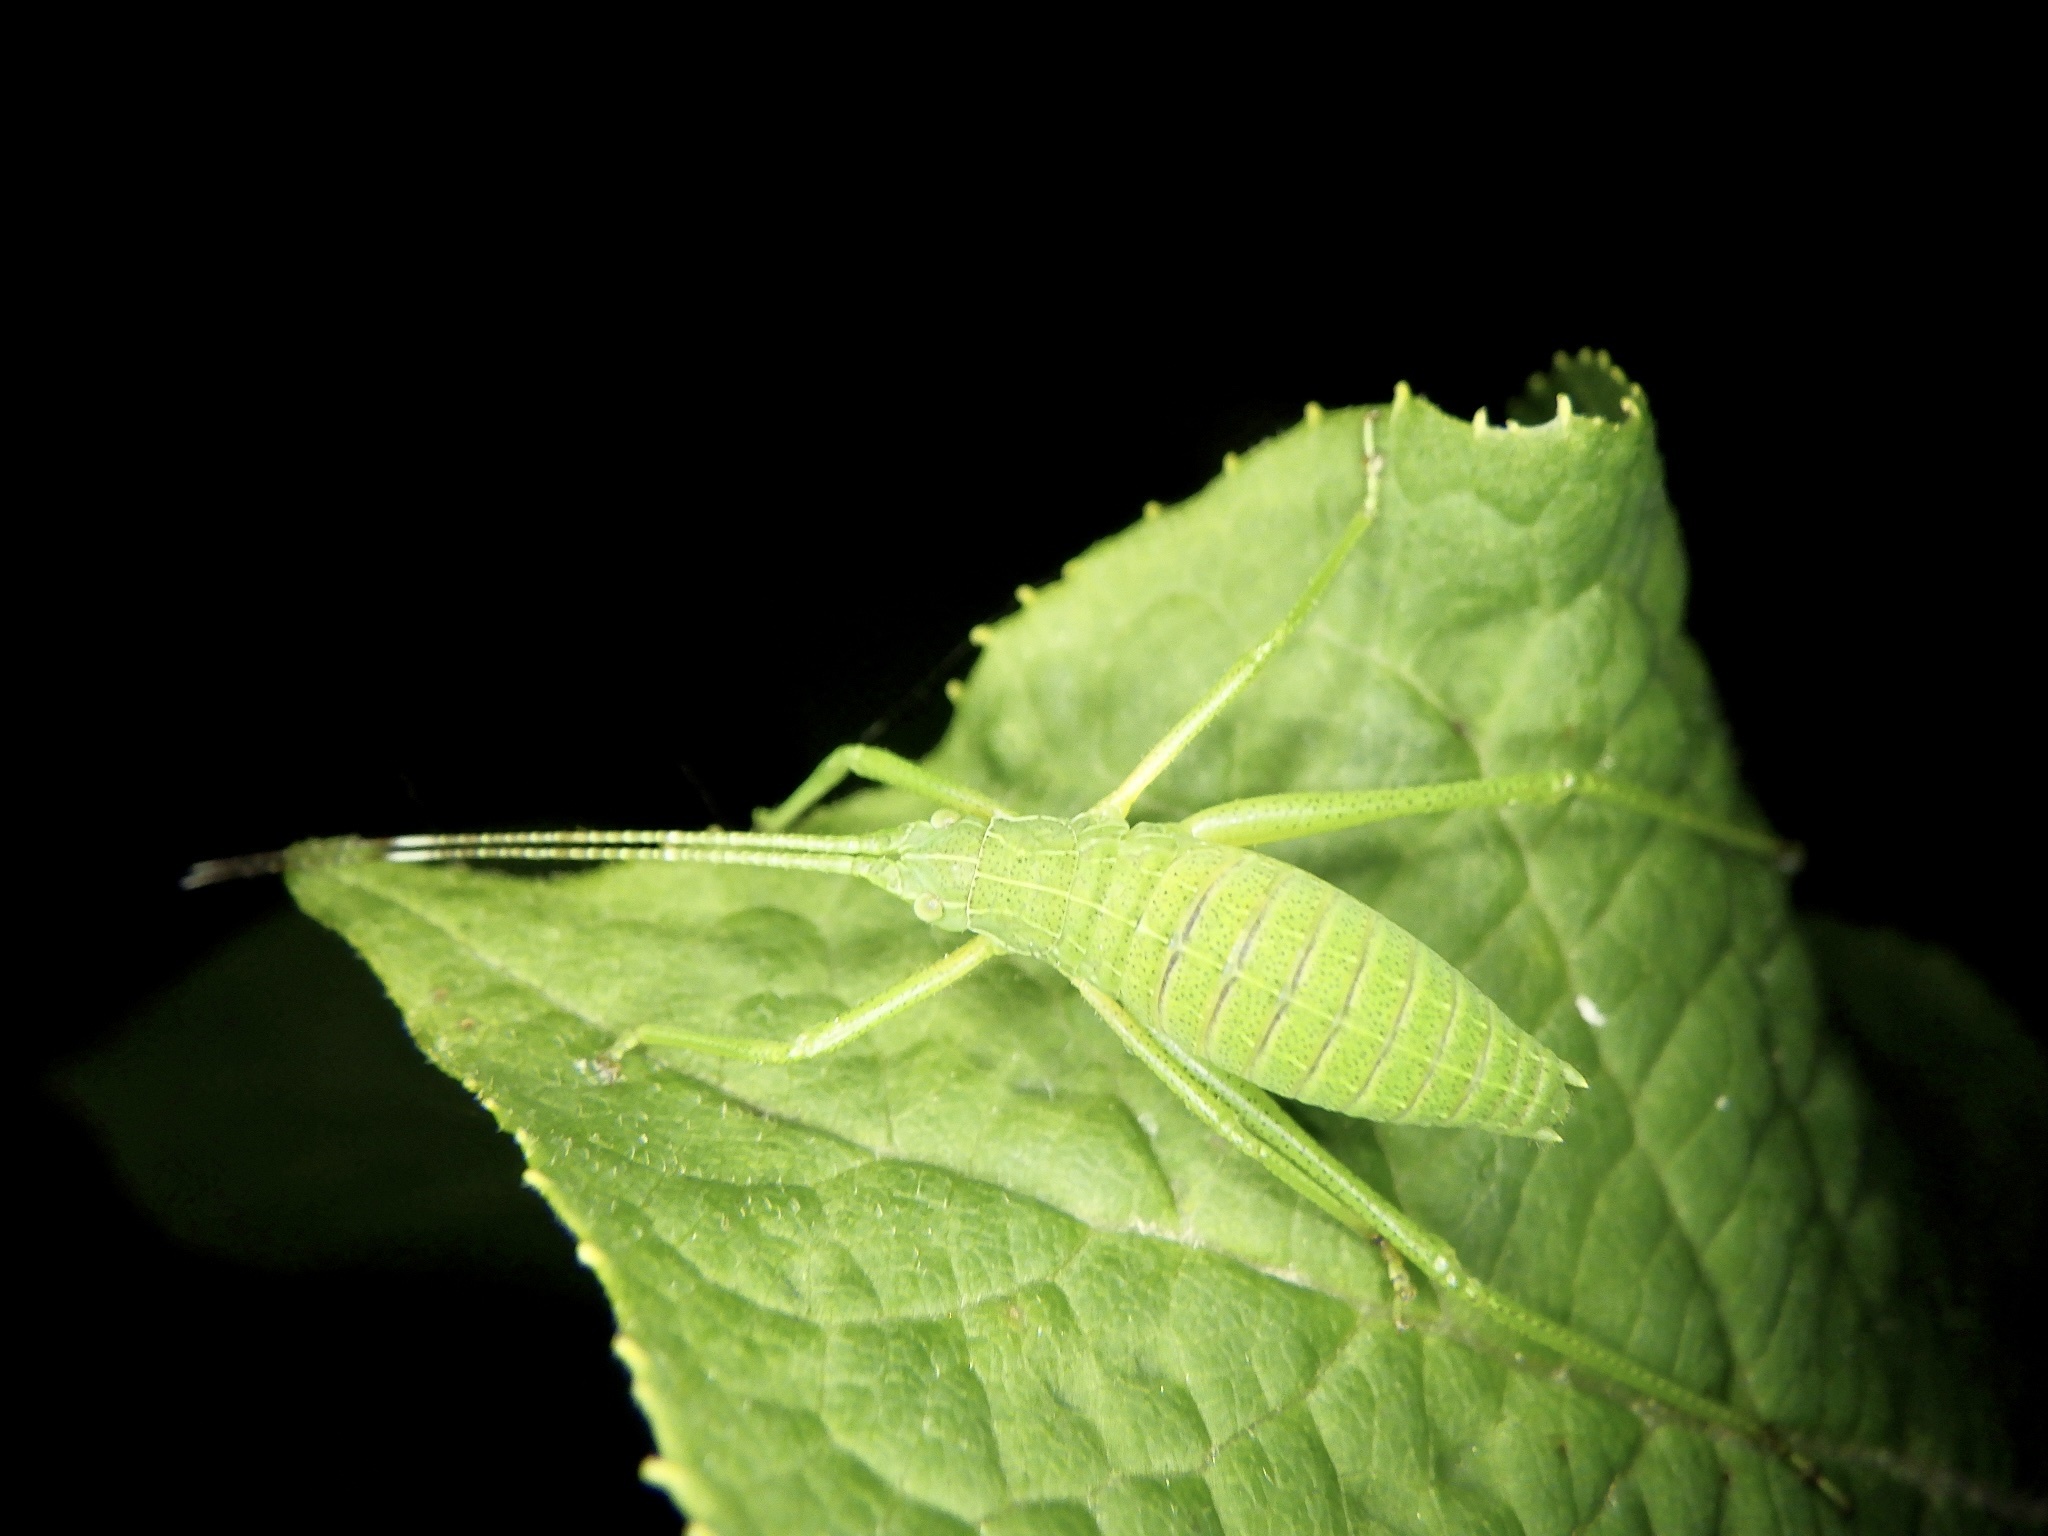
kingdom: Animalia
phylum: Arthropoda
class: Insecta
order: Orthoptera
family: Tettigoniidae
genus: Shirakisotima
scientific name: Shirakisotima japonica
